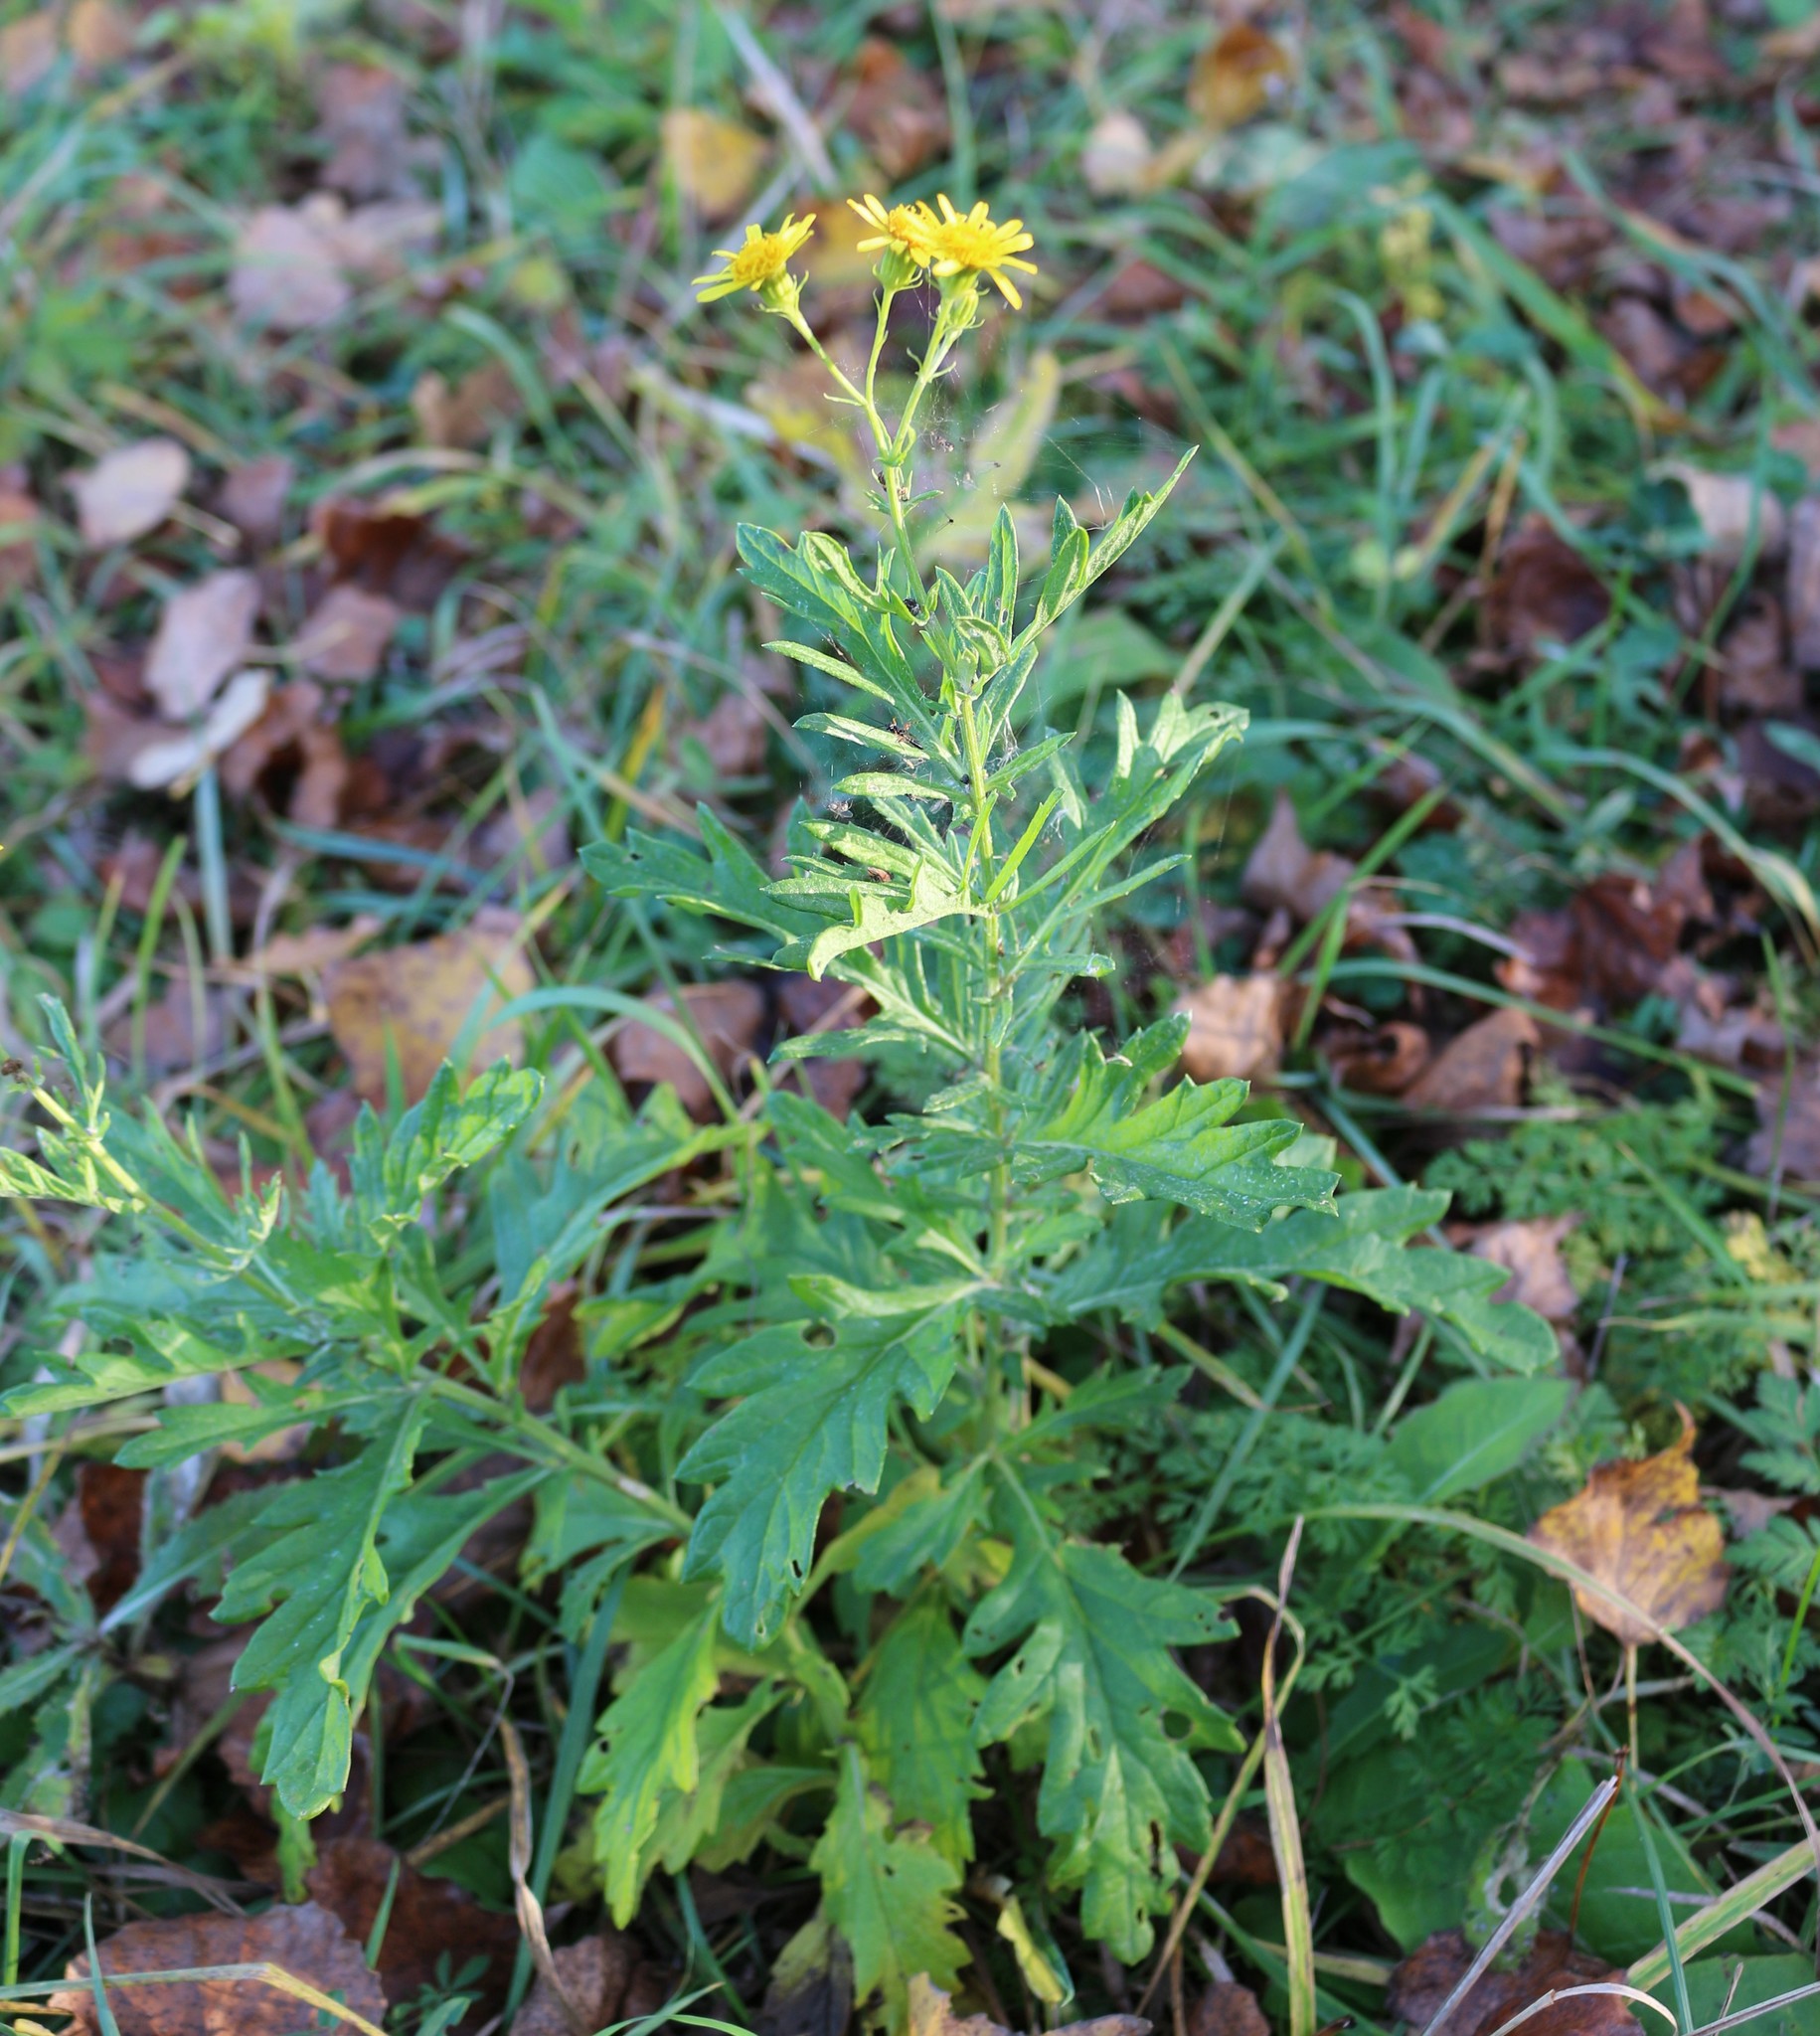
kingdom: Plantae
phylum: Tracheophyta
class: Magnoliopsida
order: Asterales
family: Asteraceae
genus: Jacobaea
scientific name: Jacobaea erucifolia
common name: Hoary ragwort
